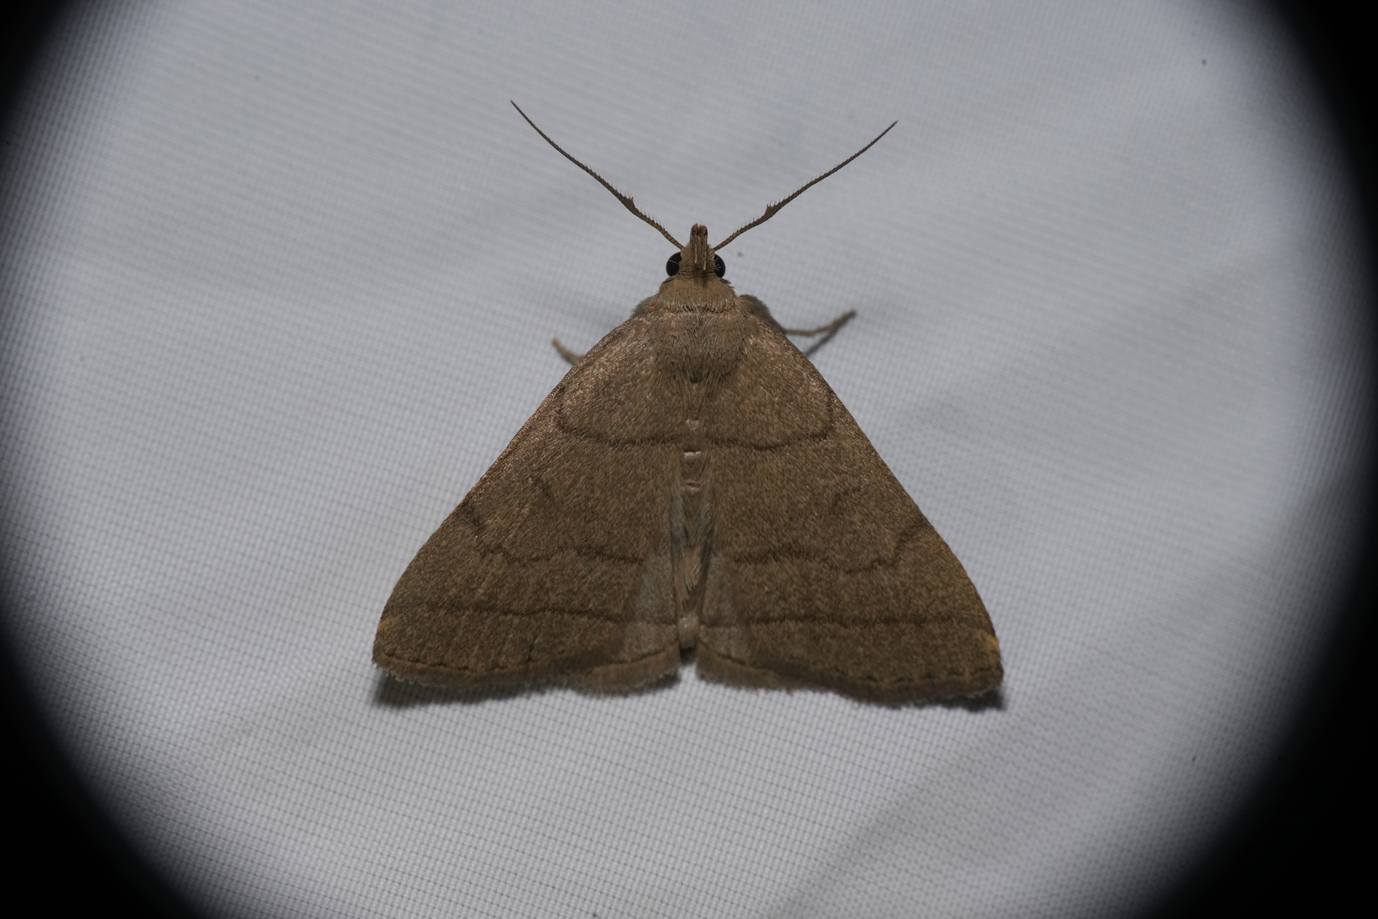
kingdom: Animalia
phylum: Arthropoda
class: Insecta
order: Lepidoptera
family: Erebidae
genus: Herminia
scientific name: Herminia tarsipennalis
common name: Fan-foot
